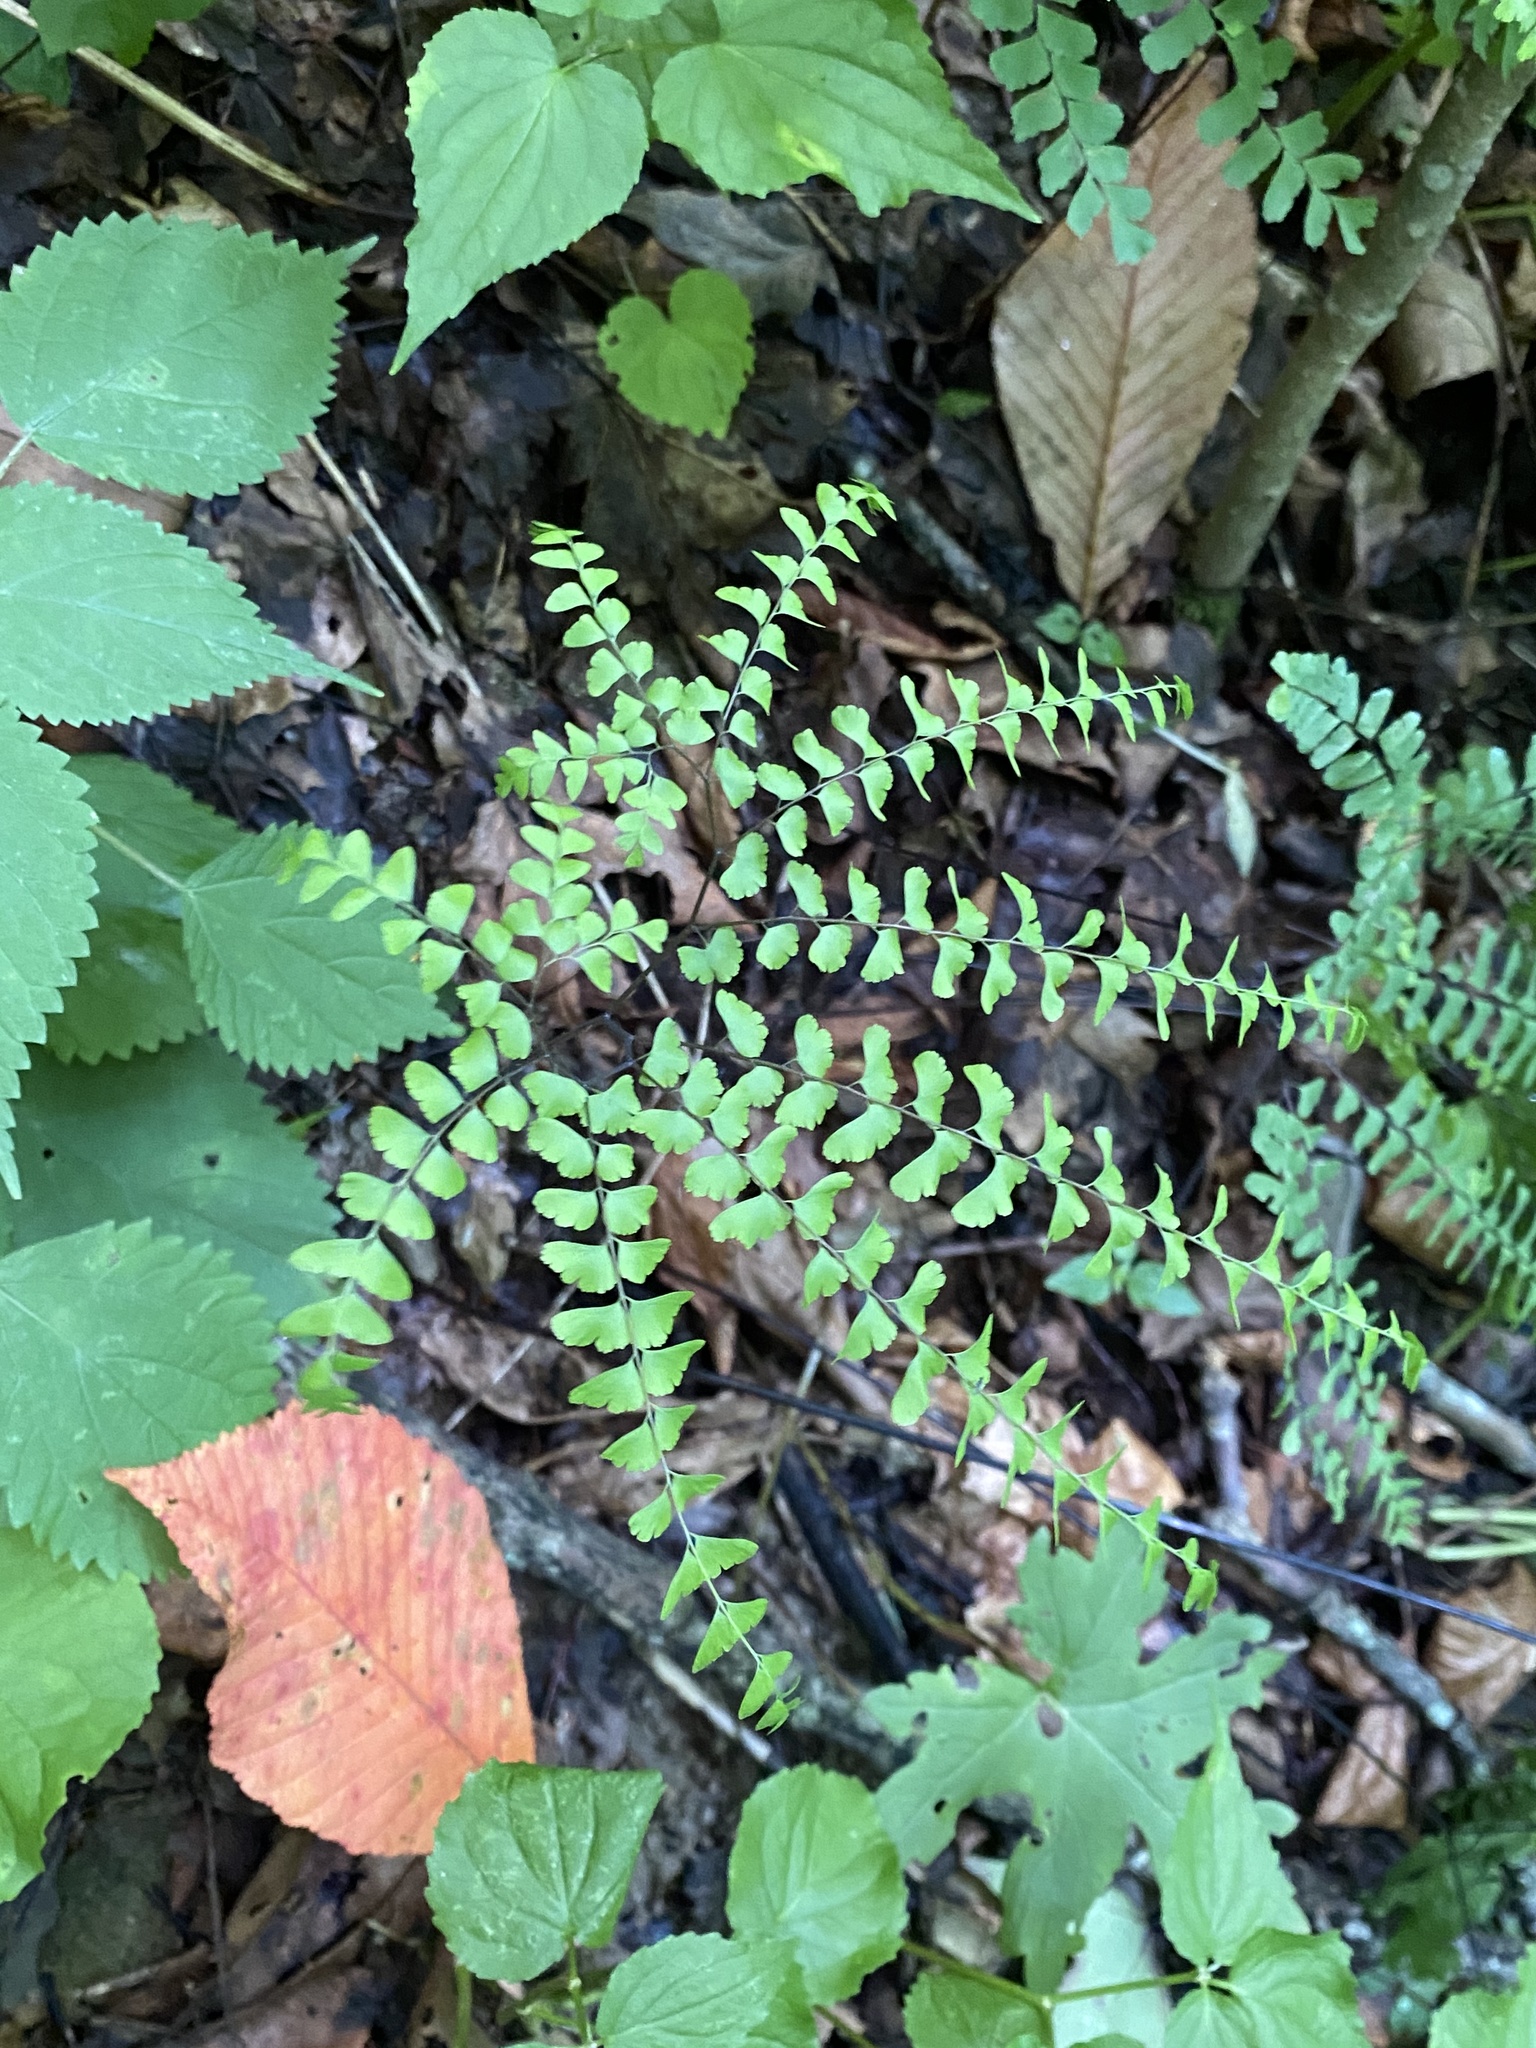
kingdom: Plantae
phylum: Tracheophyta
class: Polypodiopsida
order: Polypodiales
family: Pteridaceae
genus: Adiantum
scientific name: Adiantum pedatum
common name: Five-finger fern
